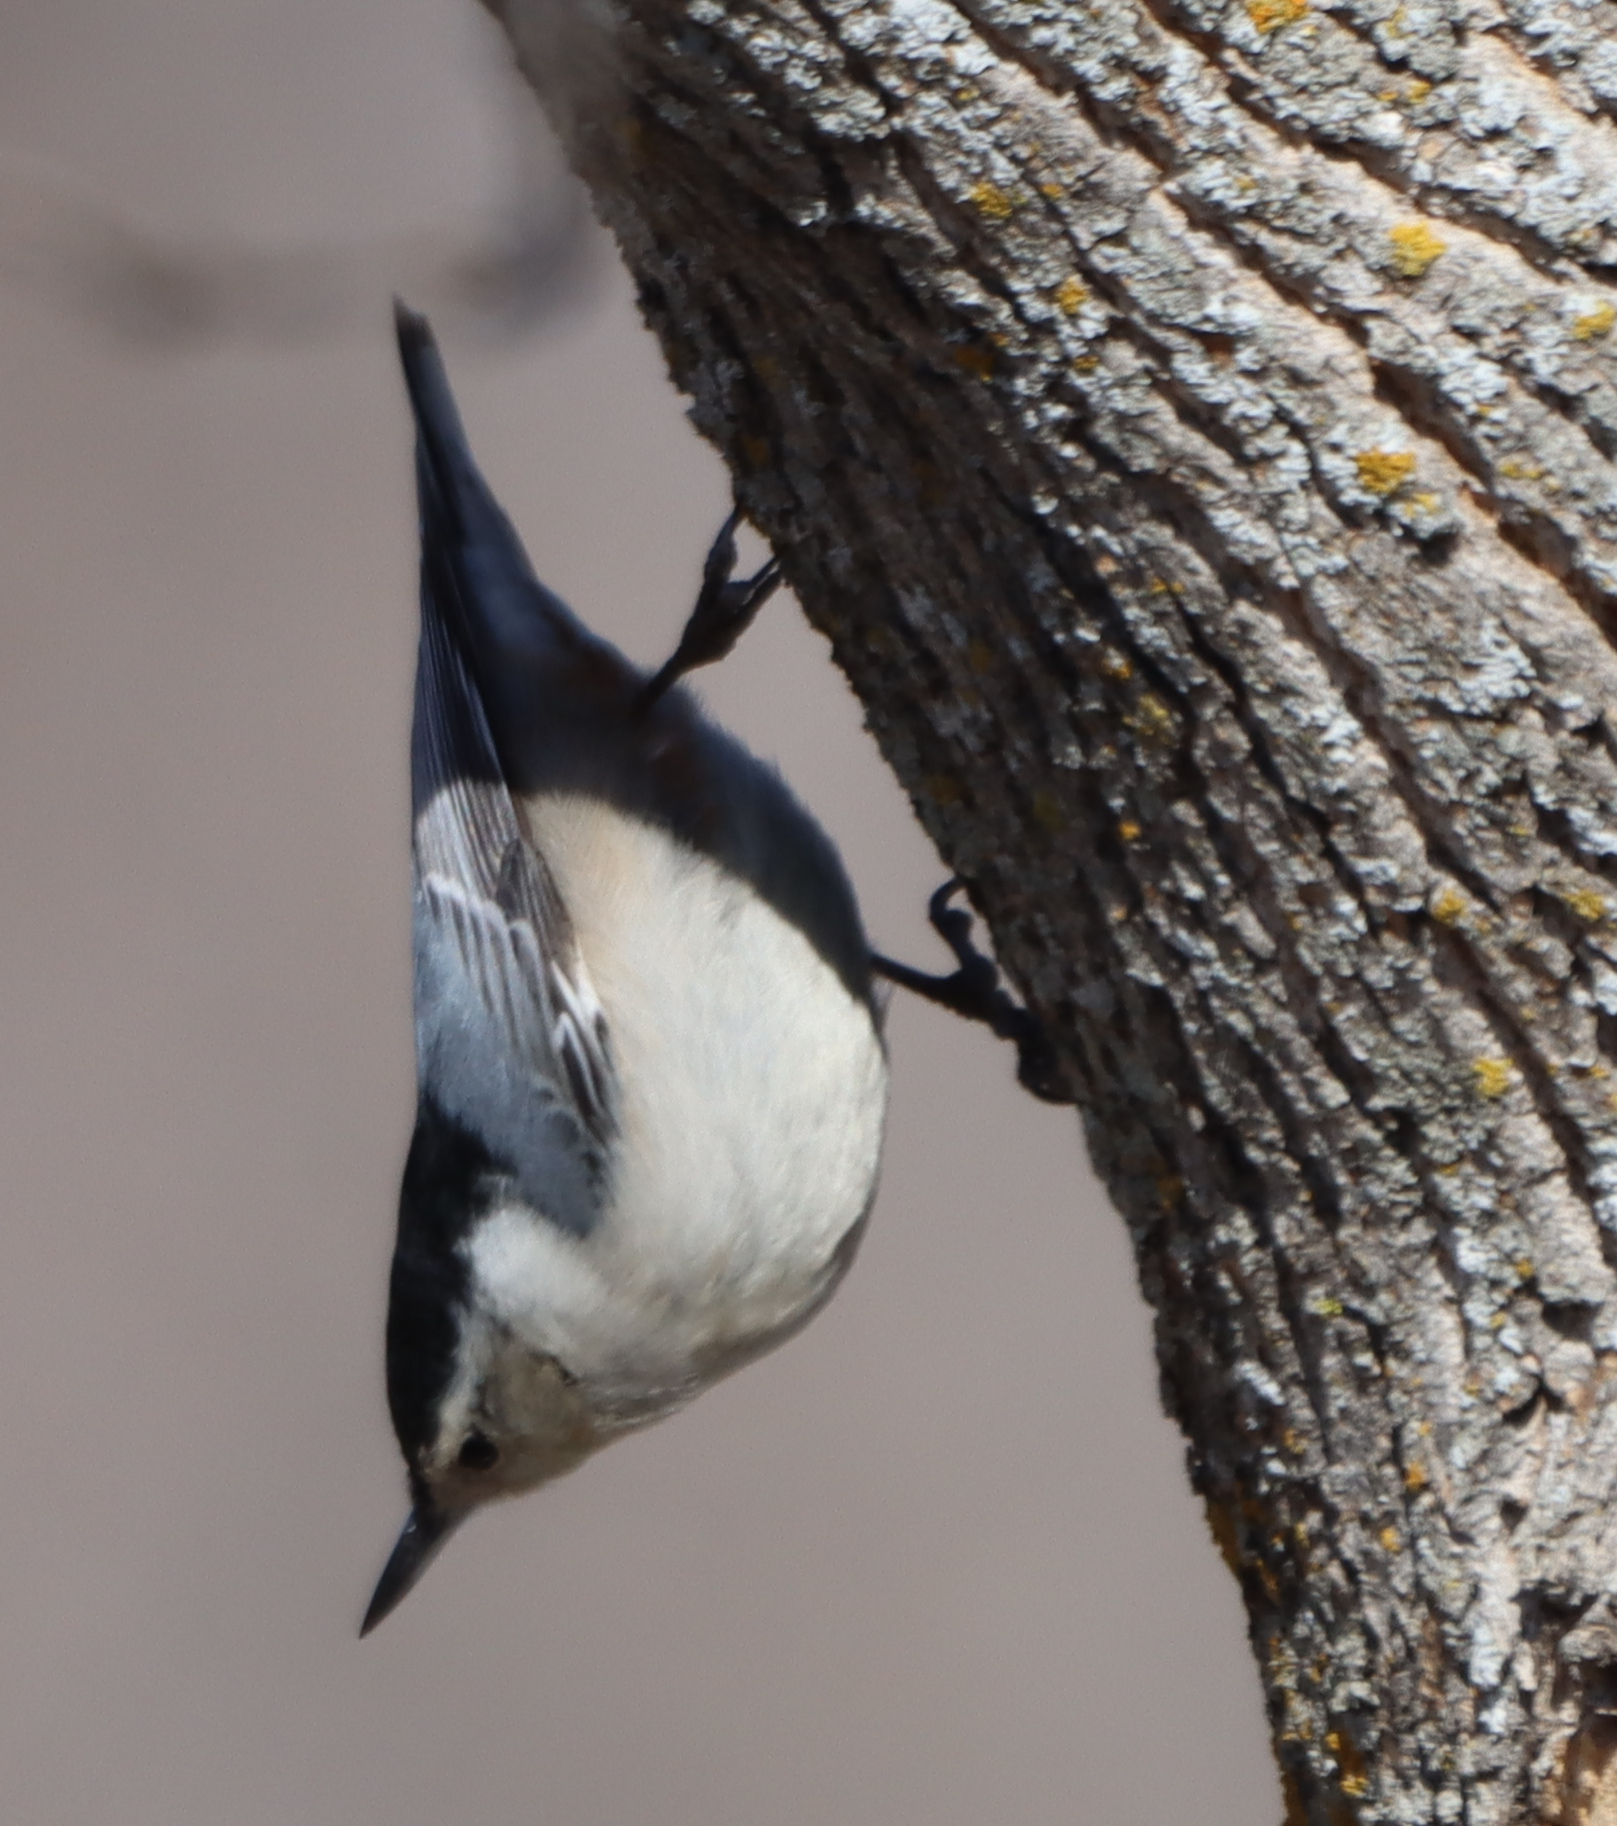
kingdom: Animalia
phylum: Chordata
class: Aves
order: Passeriformes
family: Sittidae
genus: Sitta
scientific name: Sitta carolinensis
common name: White-breasted nuthatch
